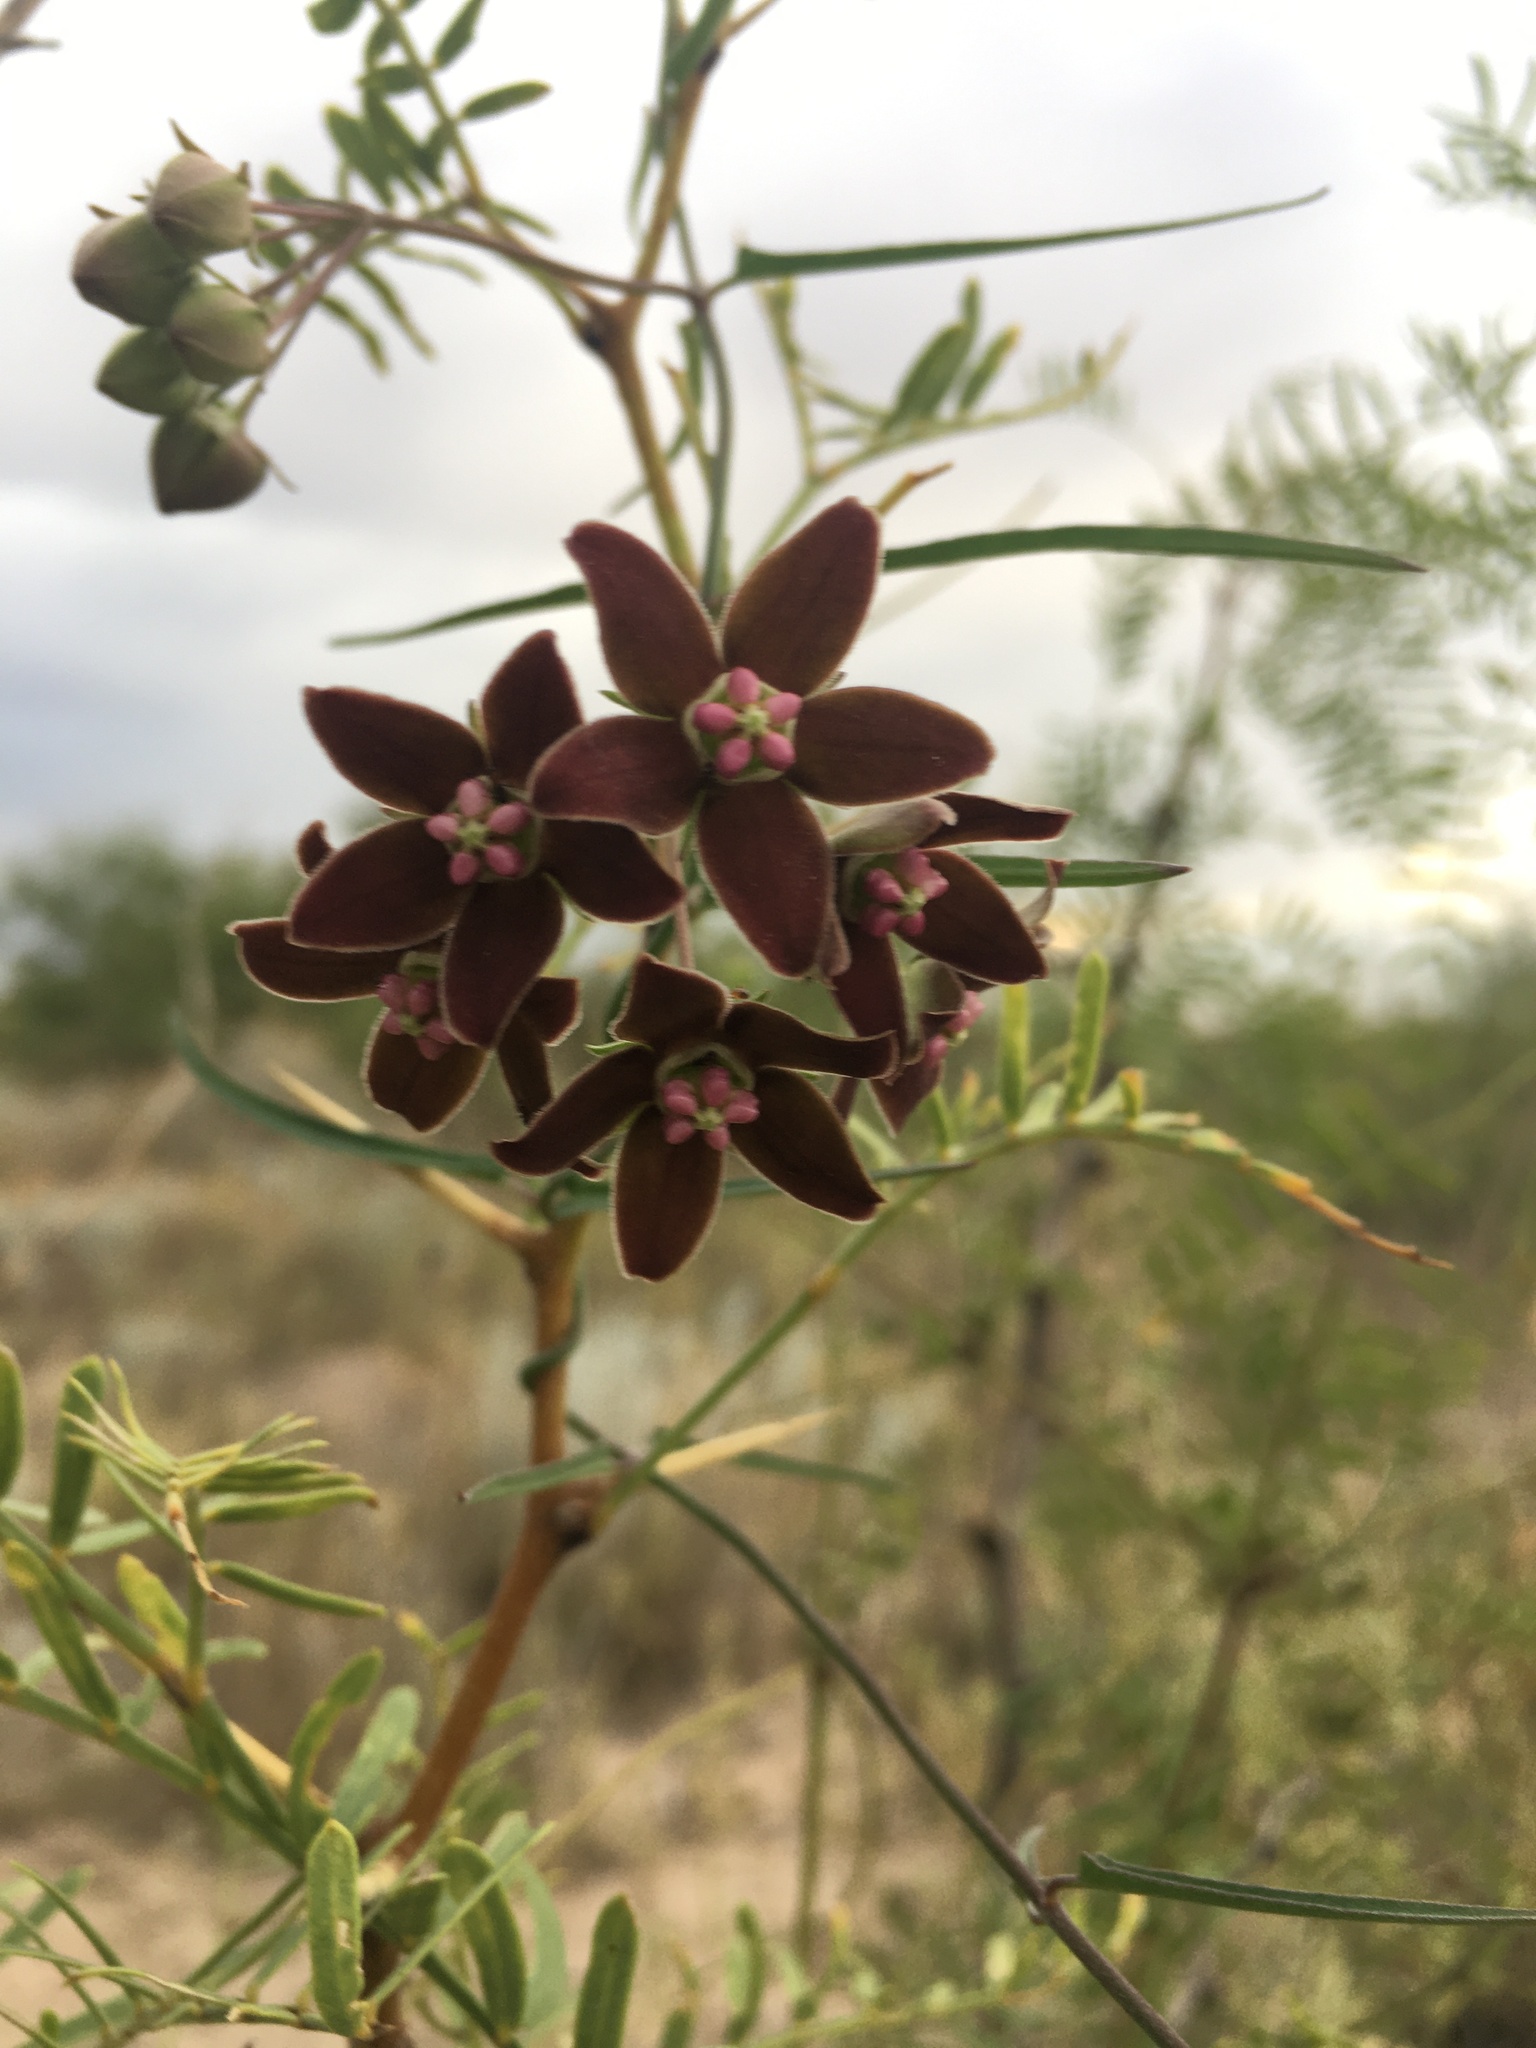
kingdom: Plantae
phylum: Tracheophyta
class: Magnoliopsida
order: Gentianales
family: Apocynaceae
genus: Funastrum
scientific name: Funastrum crispum
